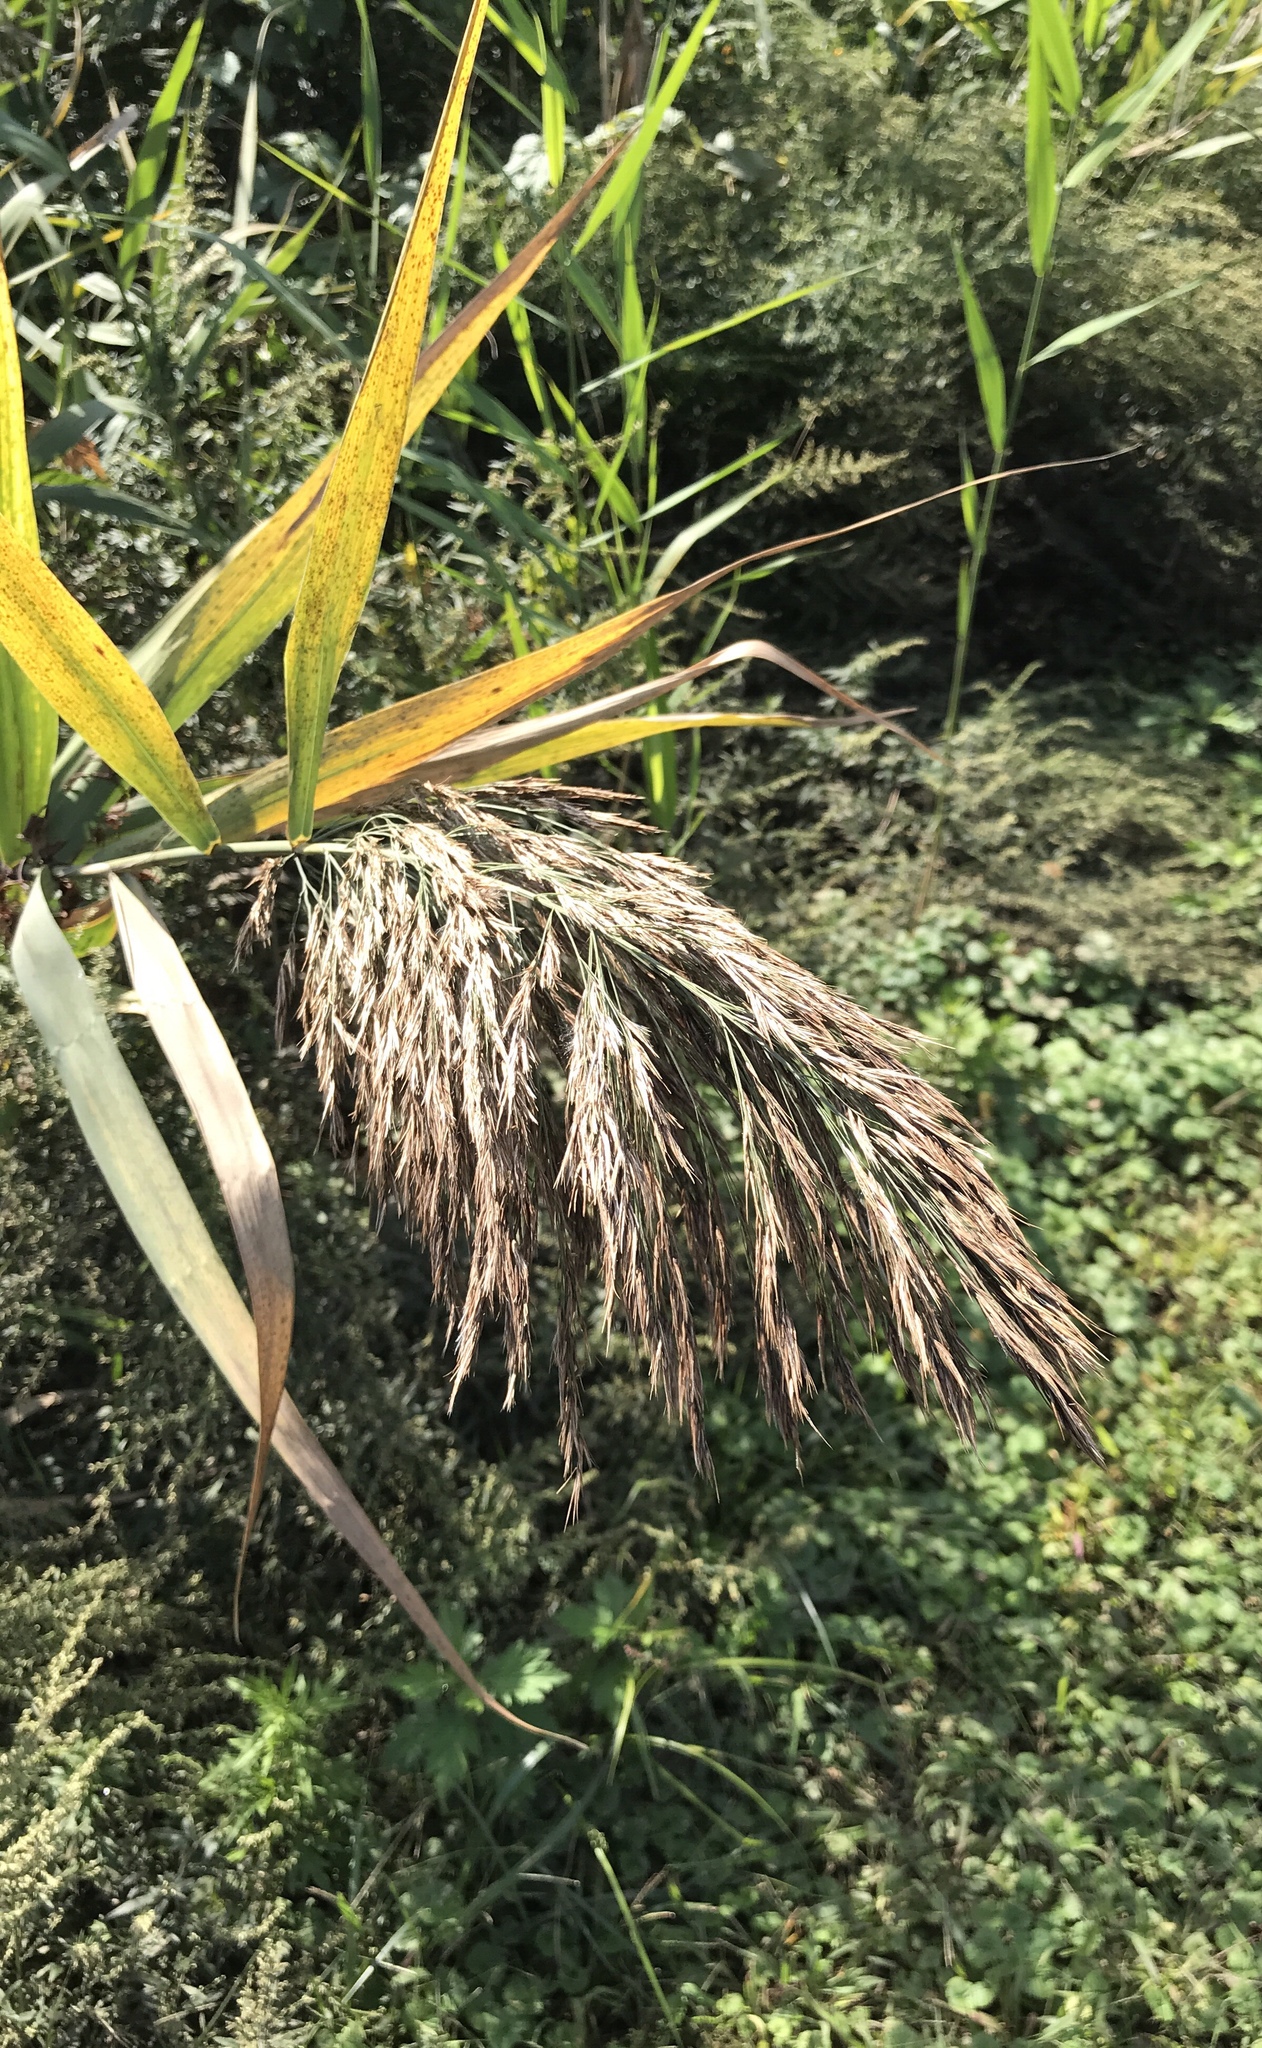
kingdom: Plantae
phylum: Tracheophyta
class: Liliopsida
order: Poales
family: Poaceae
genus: Phragmites
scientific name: Phragmites australis
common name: Common reed
